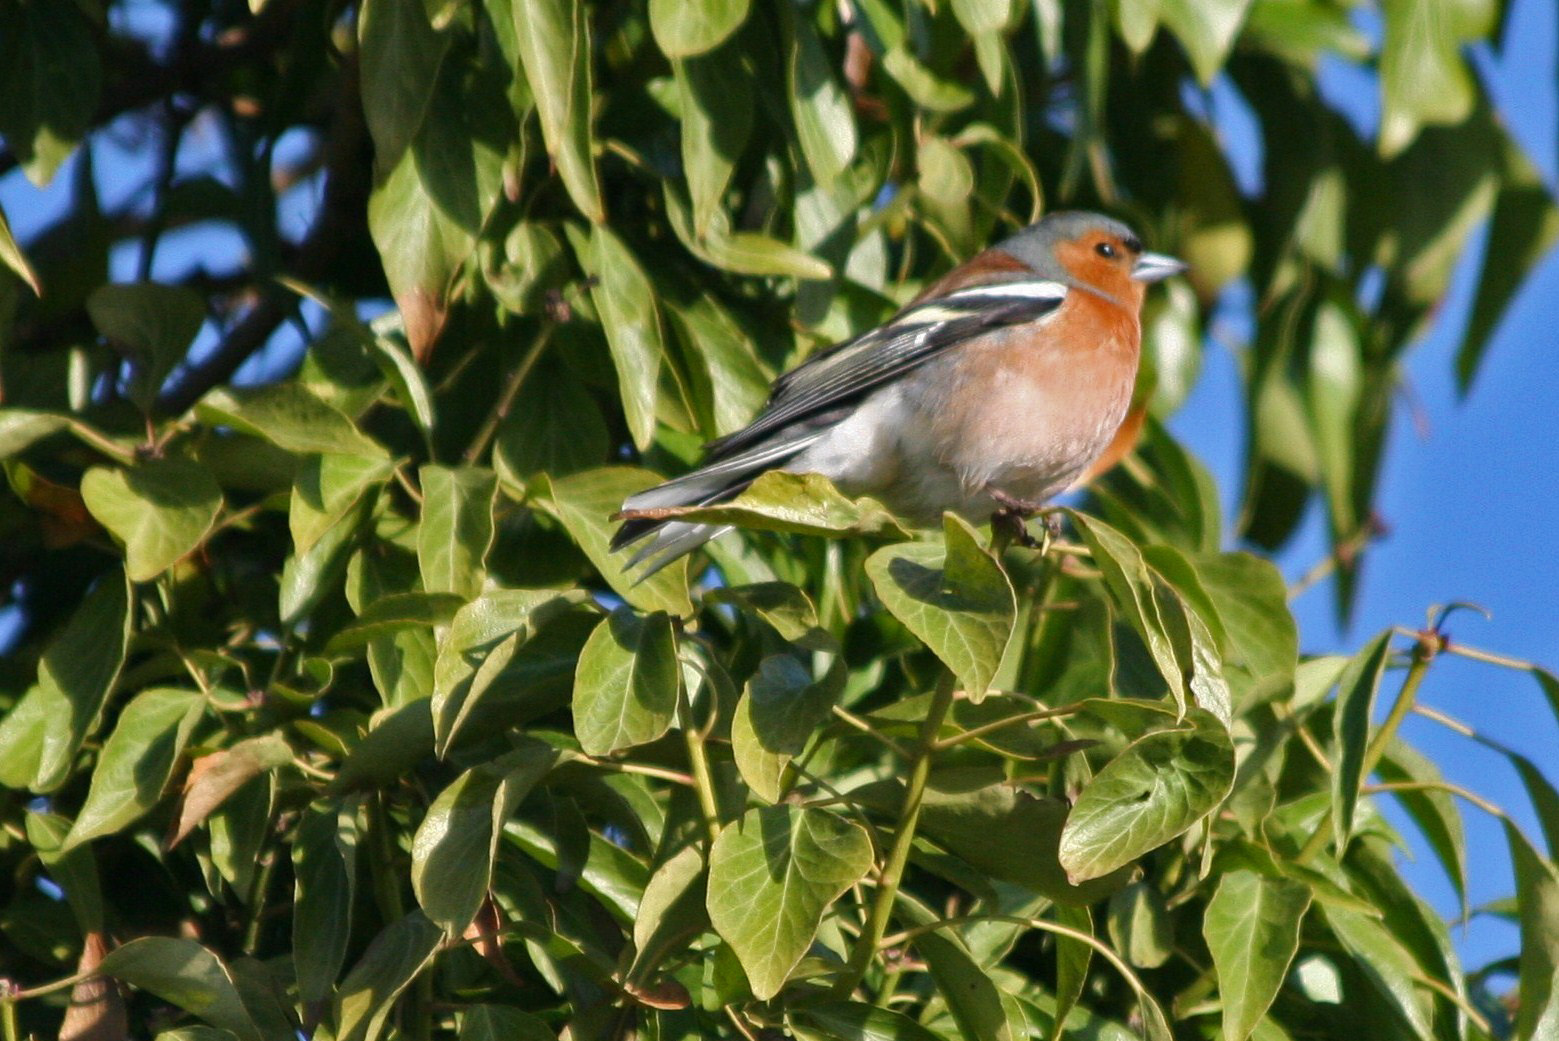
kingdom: Animalia
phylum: Chordata
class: Aves
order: Passeriformes
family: Fringillidae
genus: Fringilla
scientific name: Fringilla coelebs
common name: Common chaffinch
